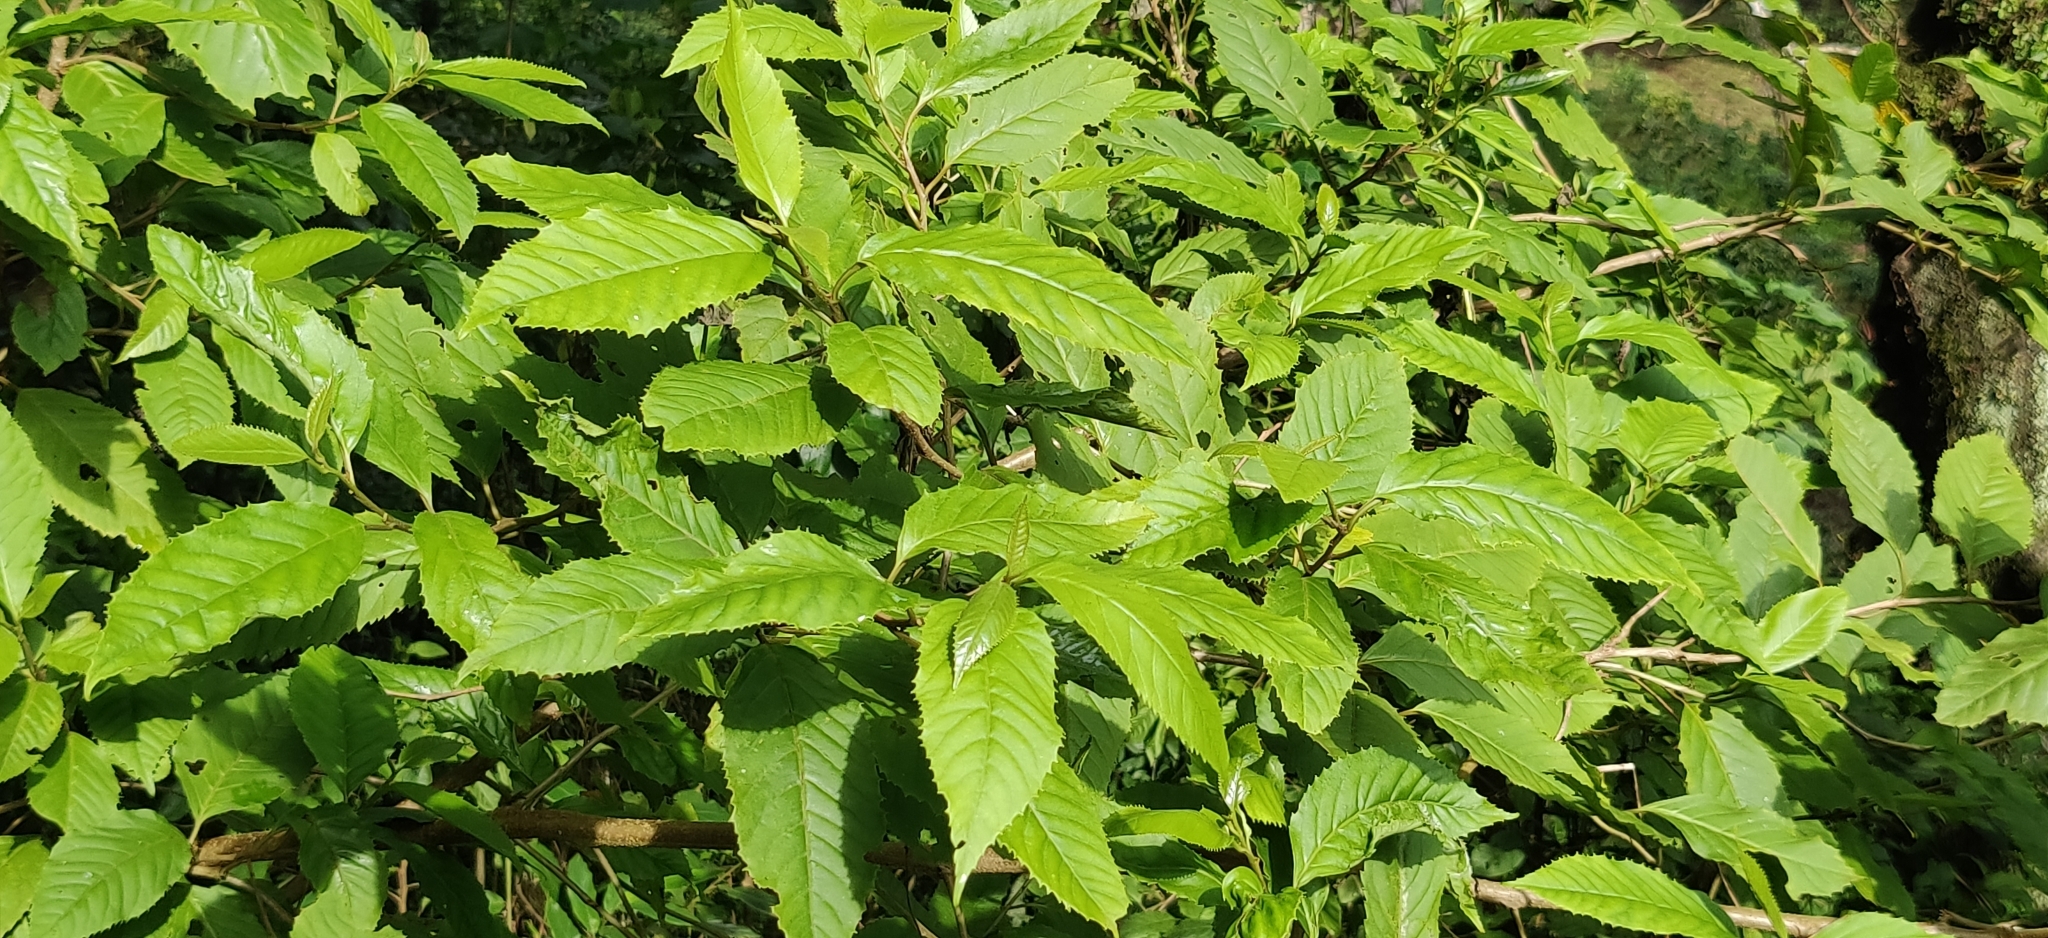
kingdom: Plantae
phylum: Tracheophyta
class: Magnoliopsida
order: Ericales
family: Primulaceae
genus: Maesa
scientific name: Maesa indica
